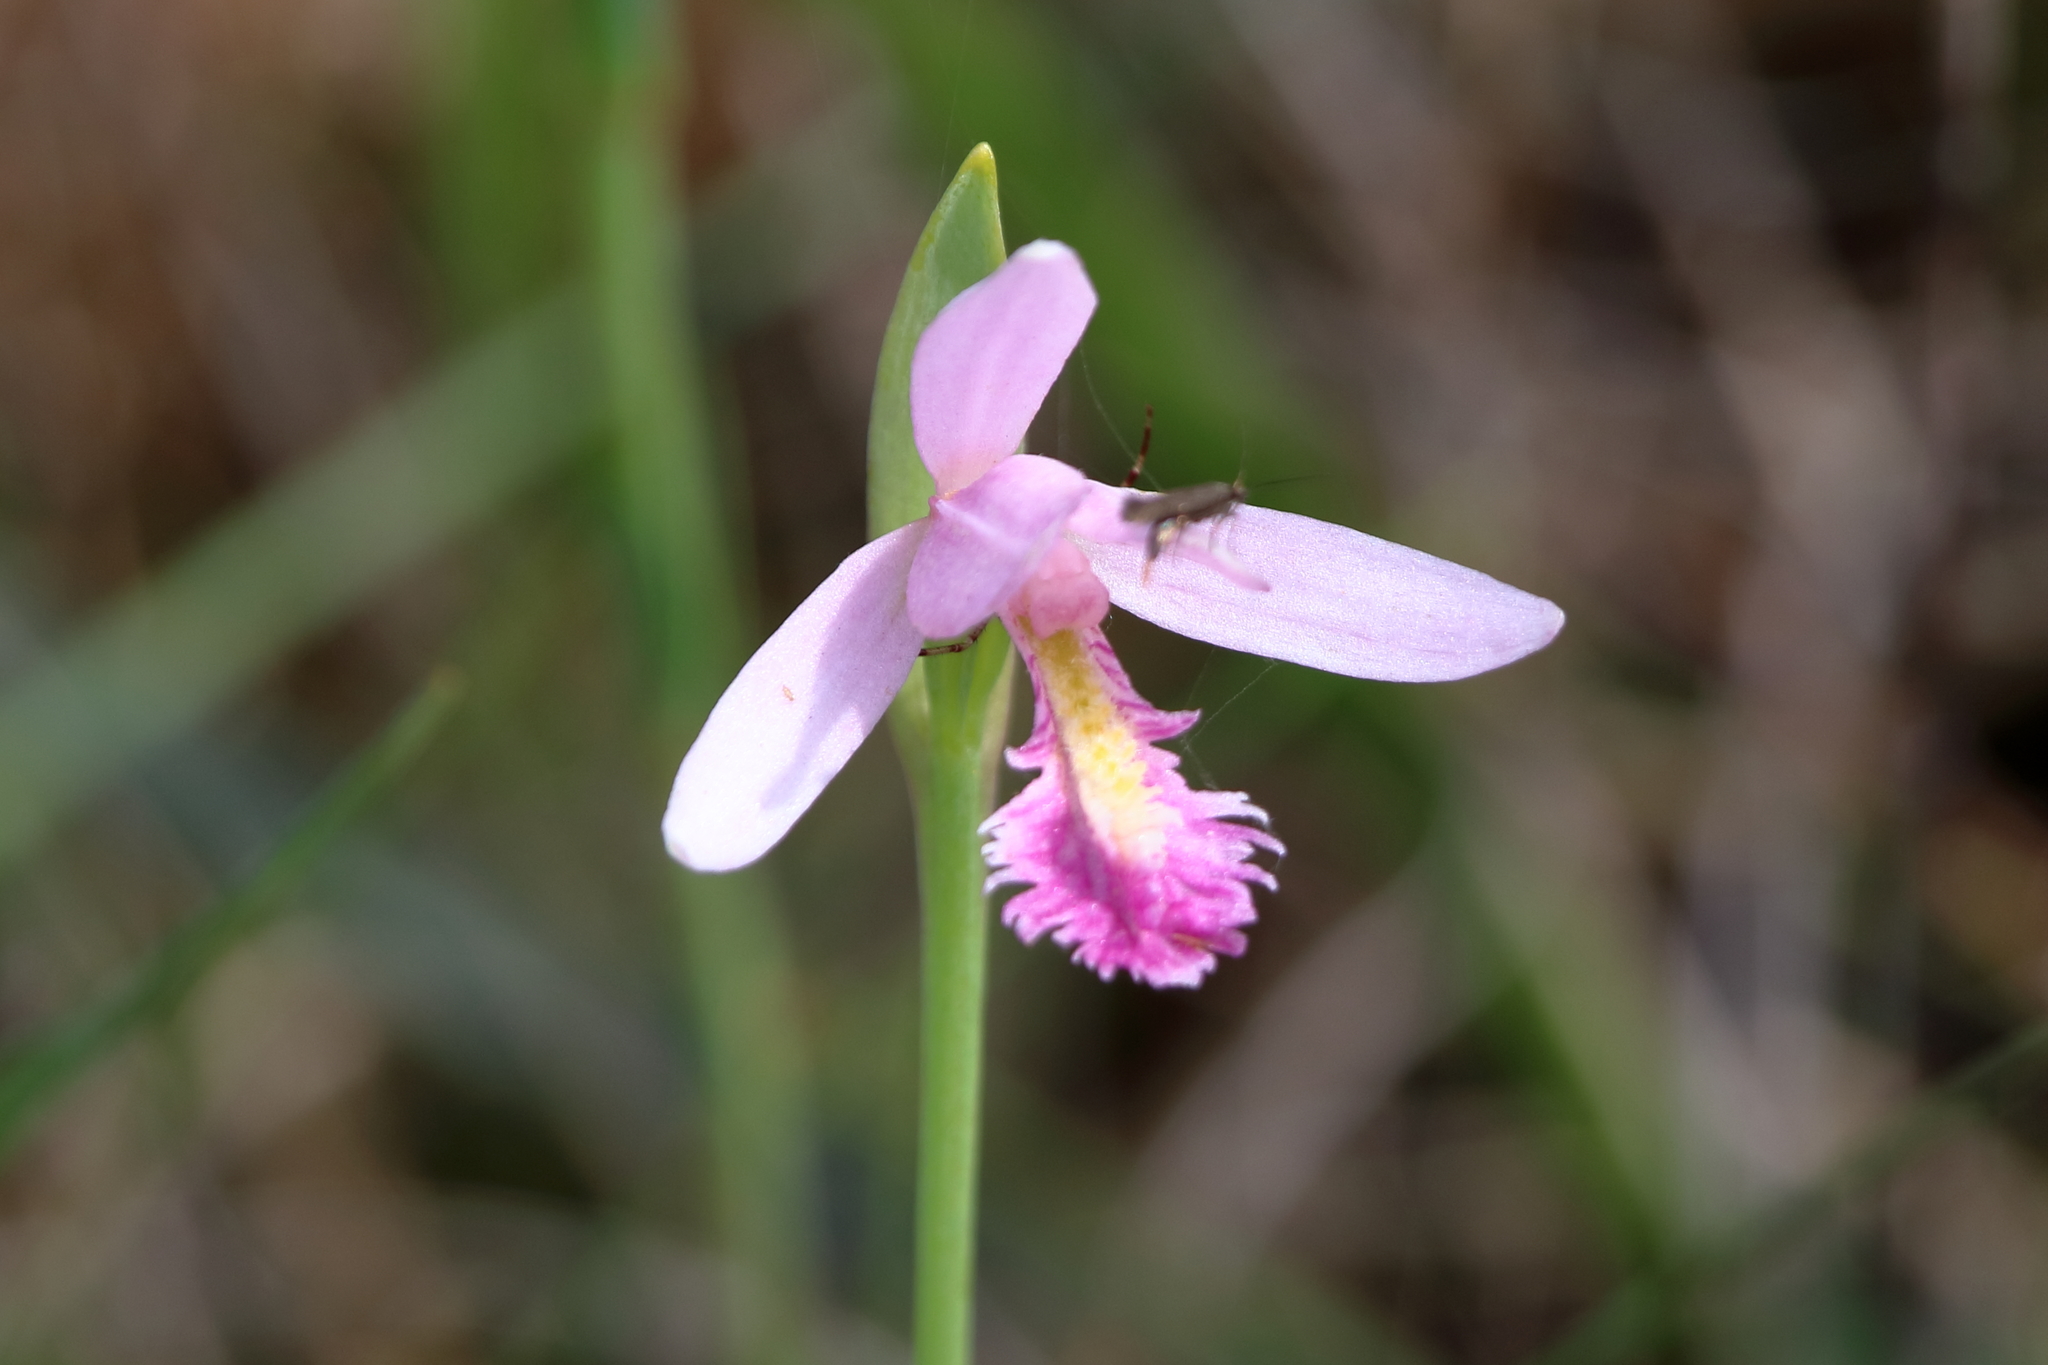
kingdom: Plantae
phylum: Tracheophyta
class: Liliopsida
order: Asparagales
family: Orchidaceae
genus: Pogonia
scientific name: Pogonia ophioglossoides
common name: Rose pogonia
